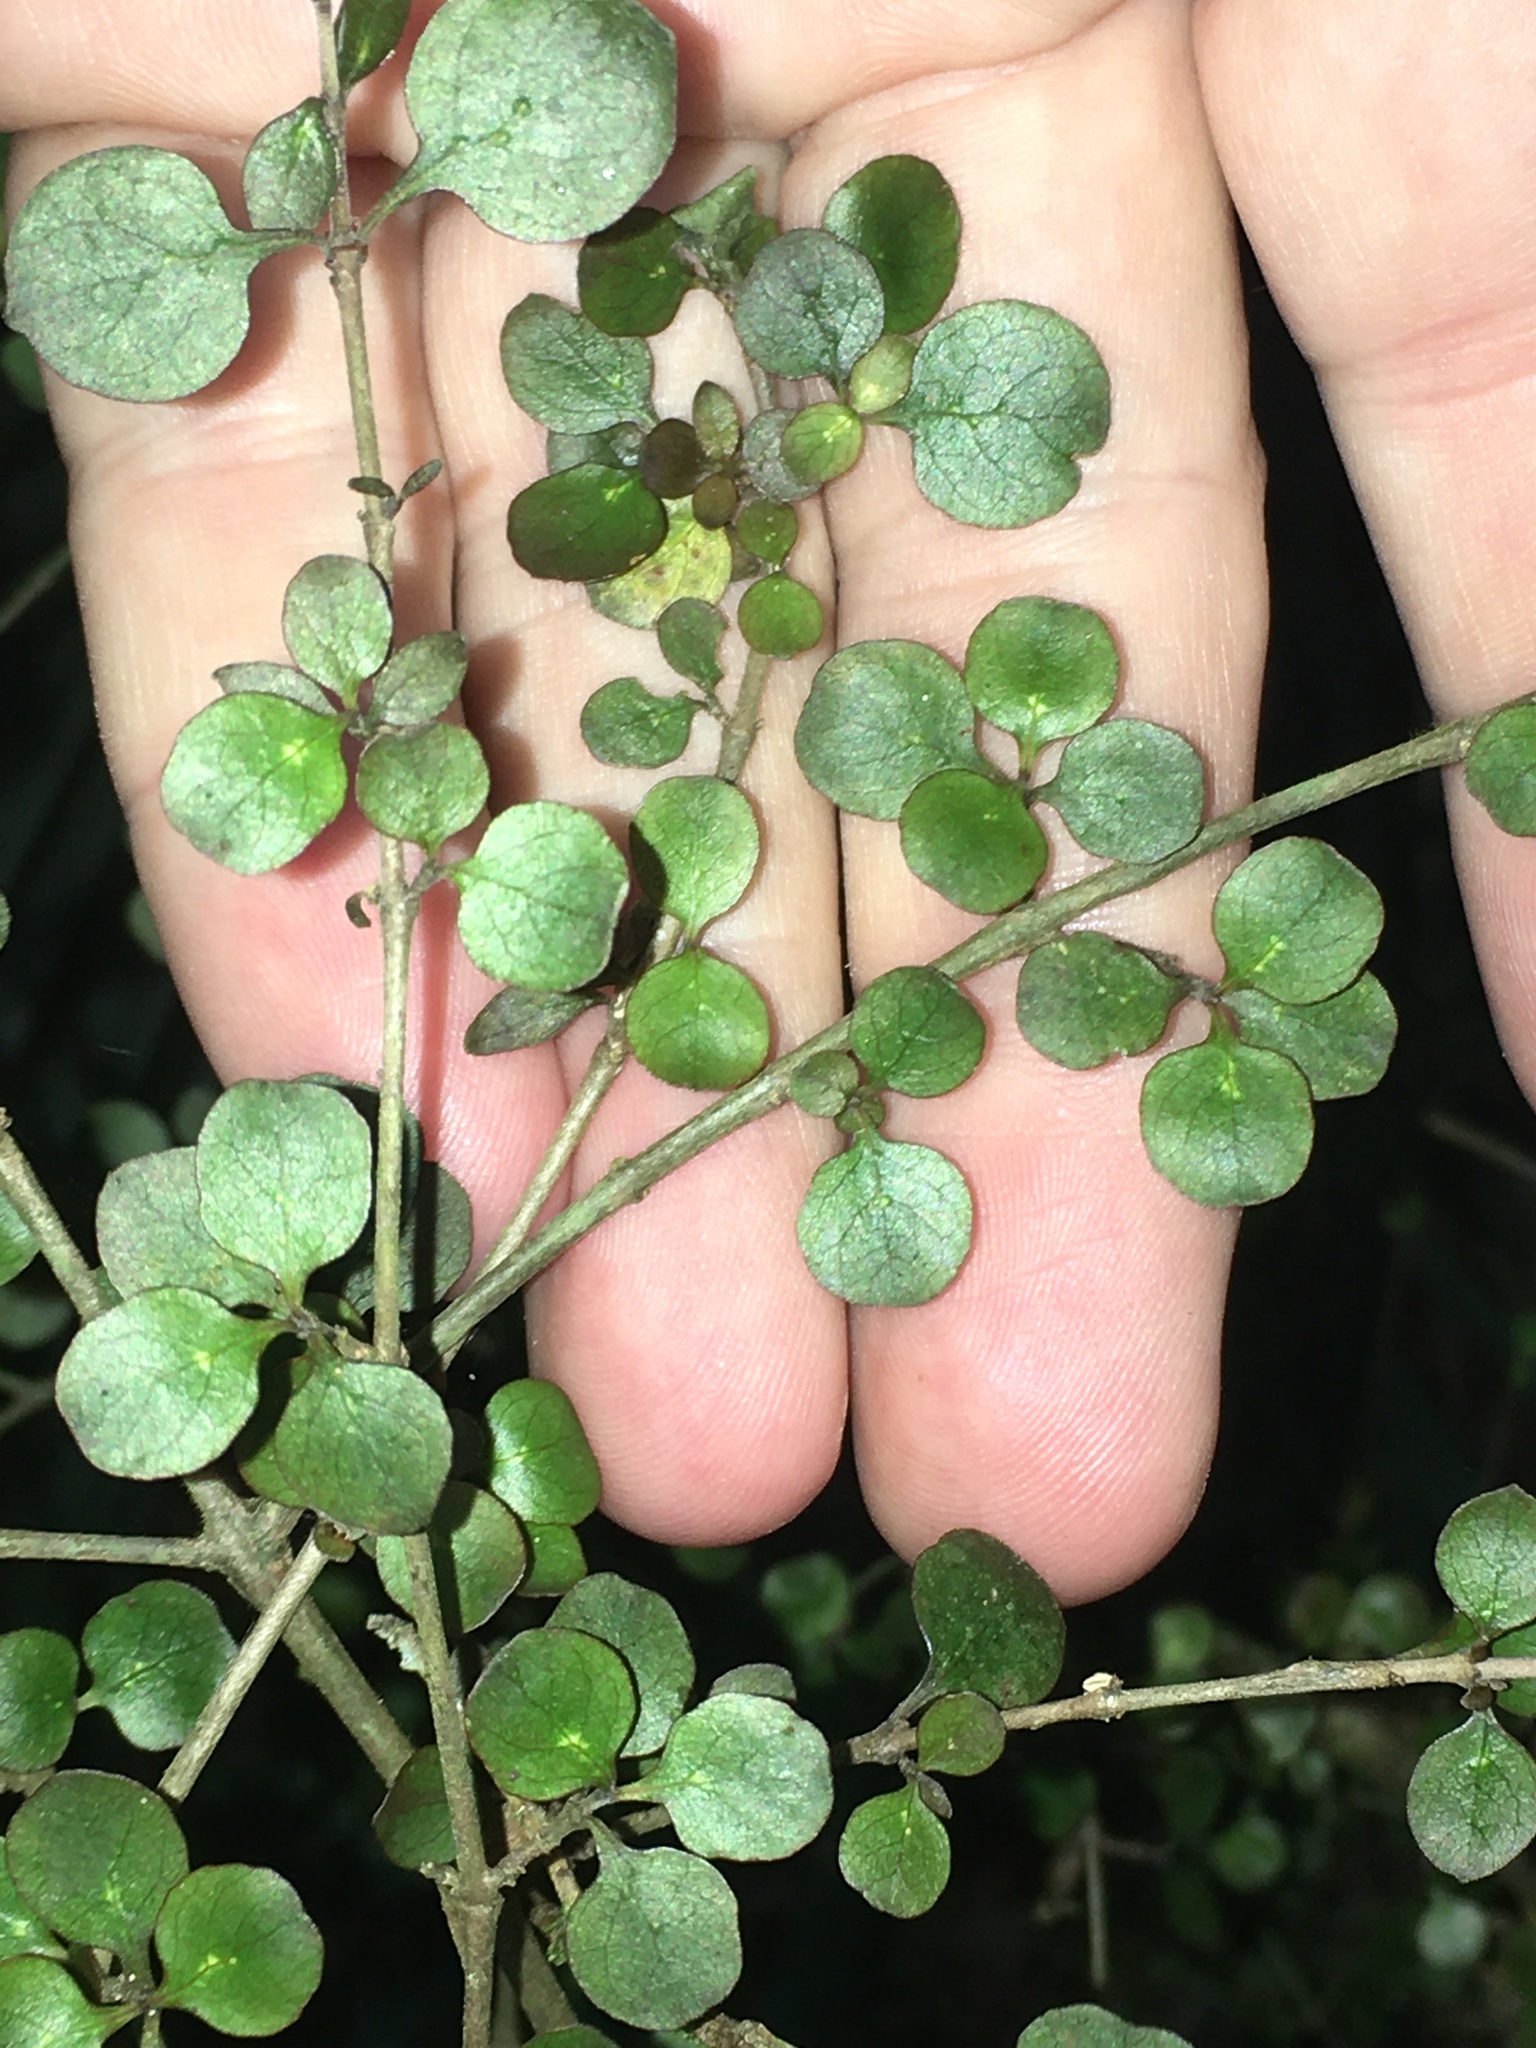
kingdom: Plantae
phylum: Tracheophyta
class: Magnoliopsida
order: Gentianales
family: Rubiaceae
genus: Coprosma
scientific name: Coprosma rhamnoides
